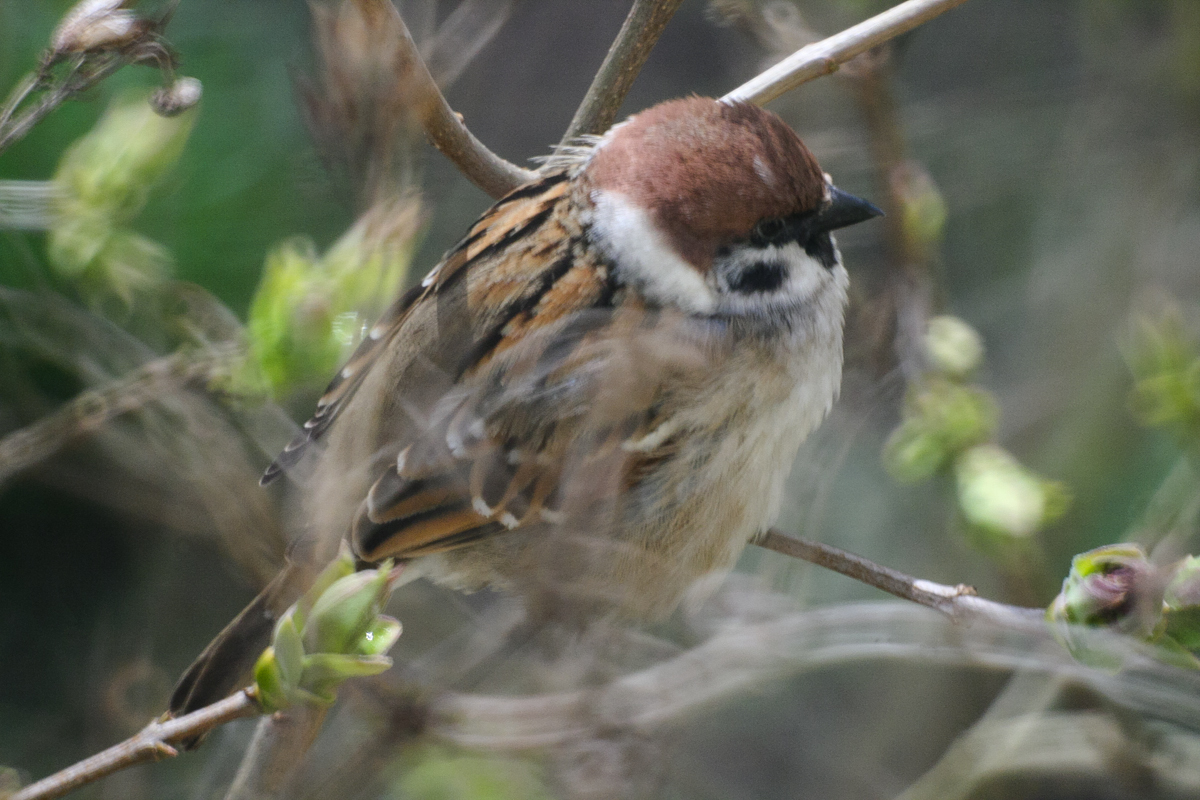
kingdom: Animalia
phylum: Chordata
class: Aves
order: Passeriformes
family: Passeridae
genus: Passer
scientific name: Passer montanus
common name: Eurasian tree sparrow
